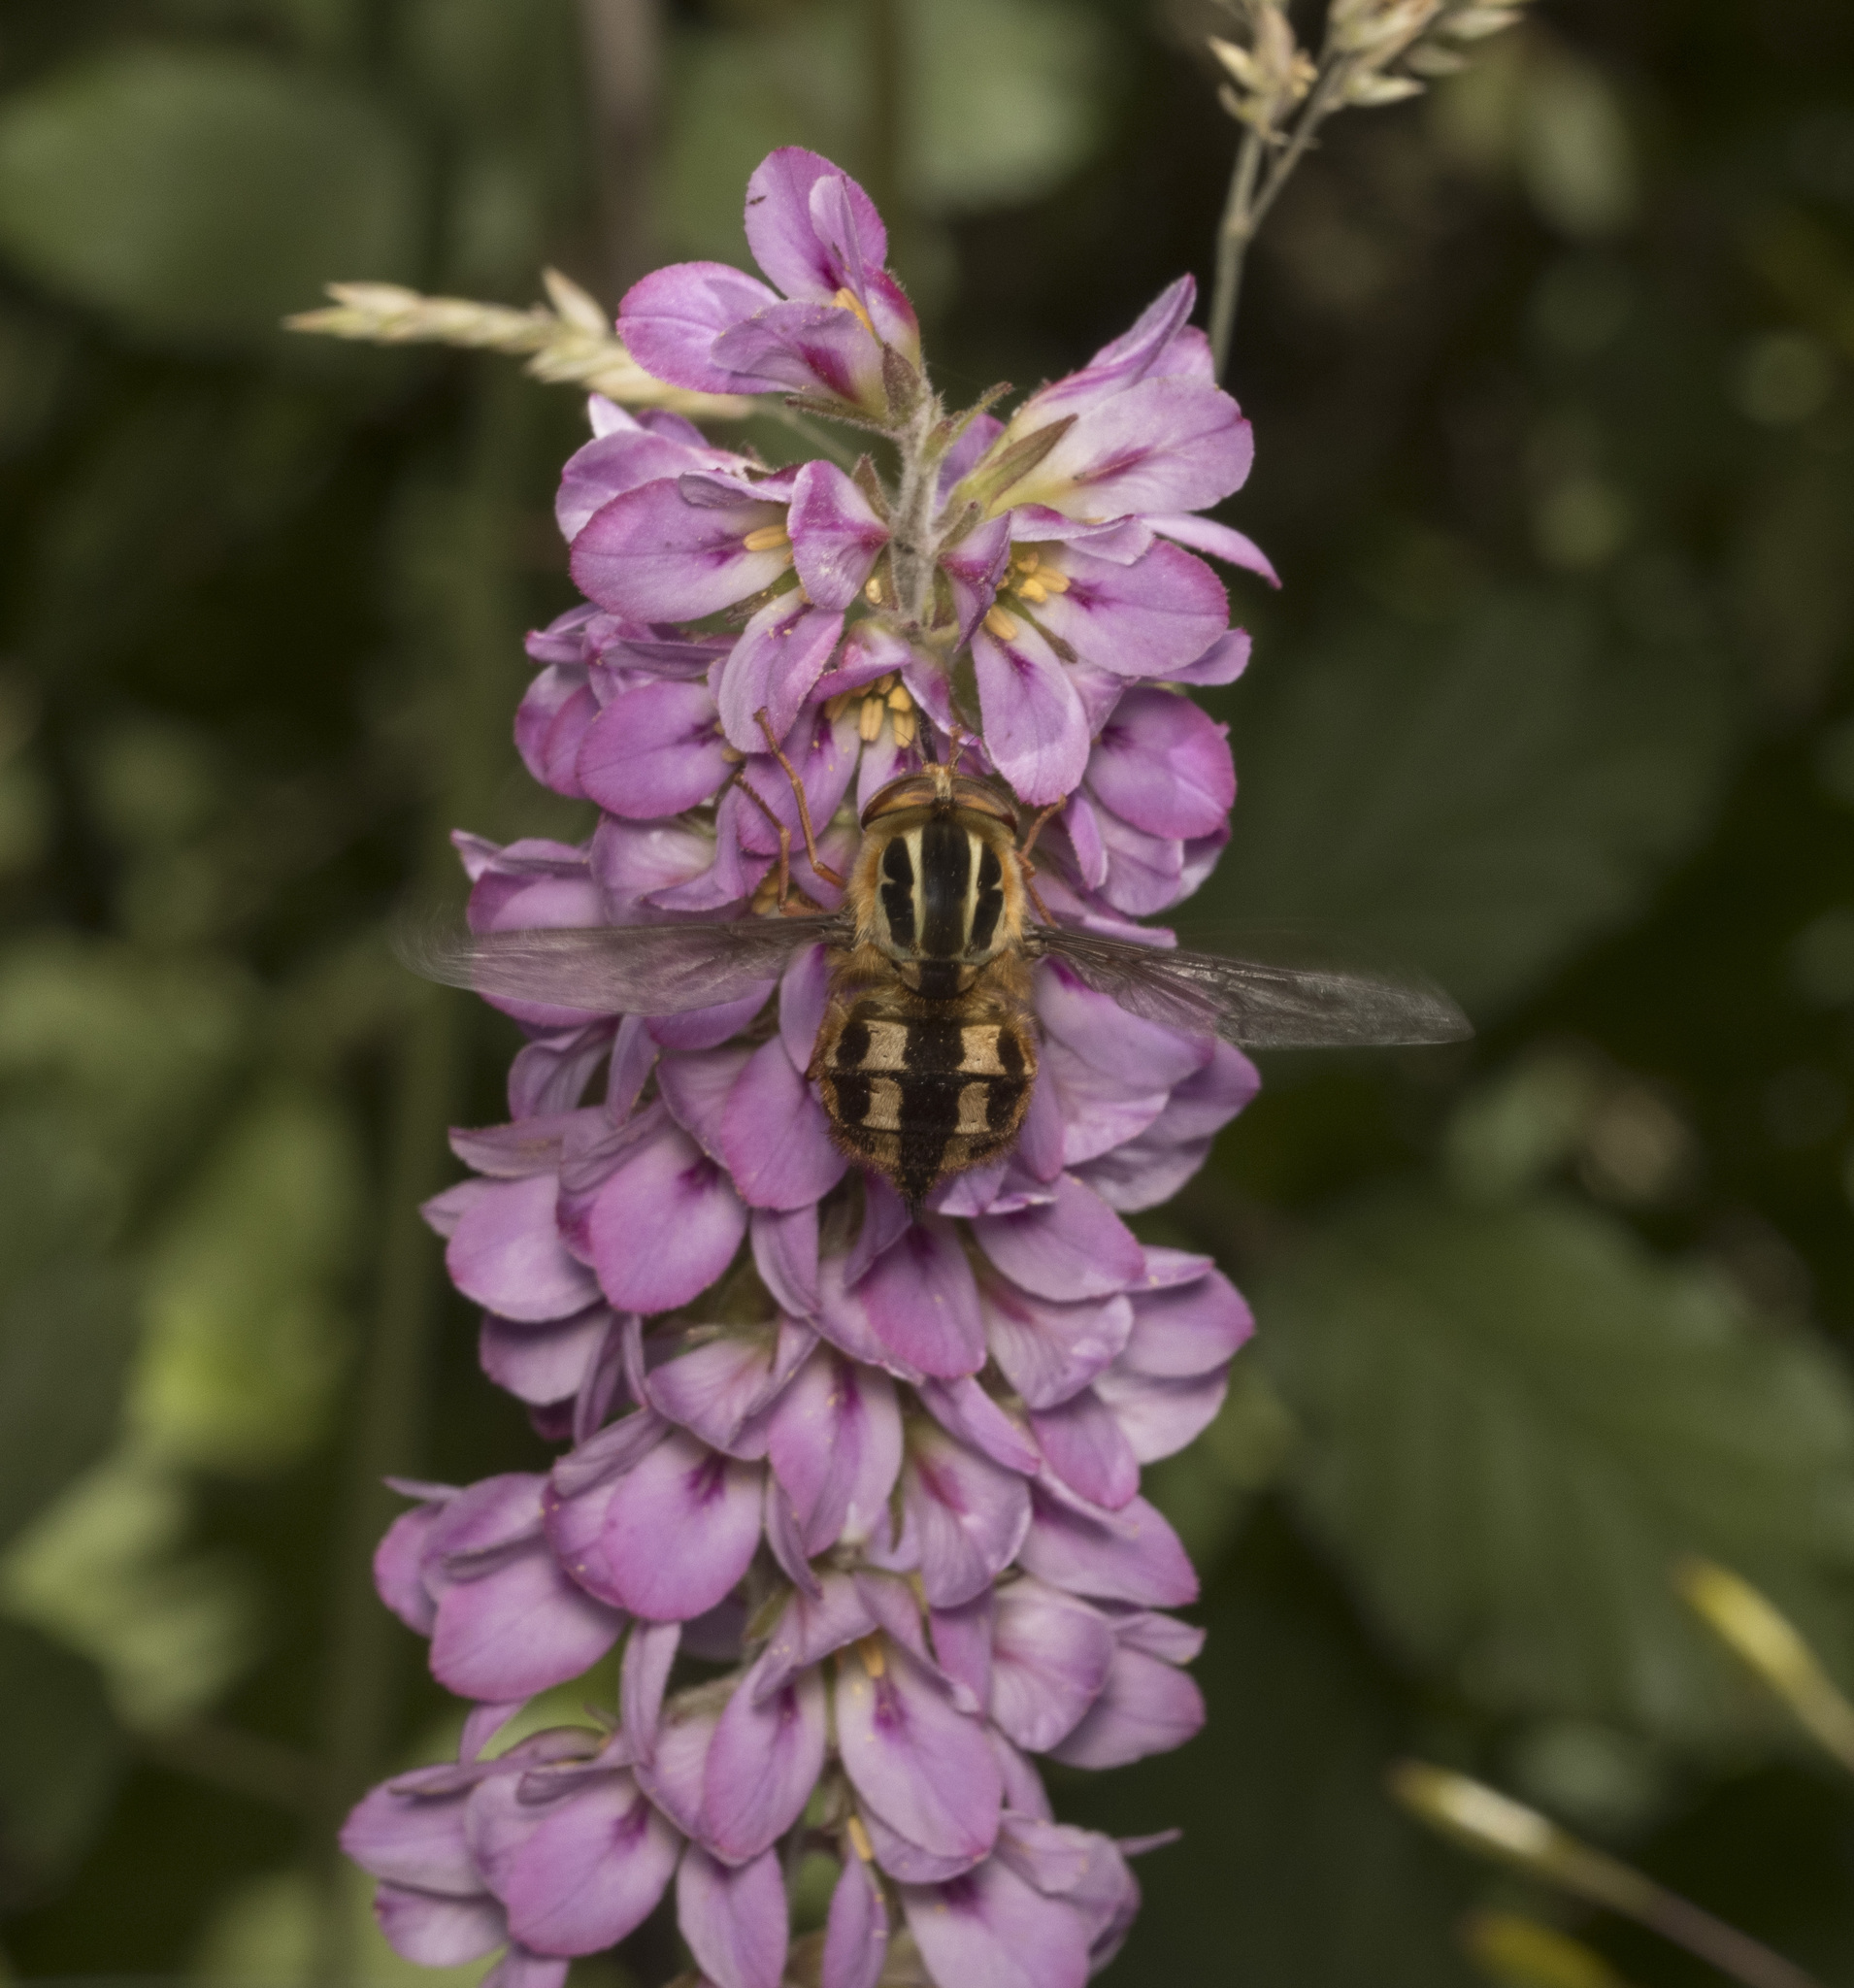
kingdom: Animalia
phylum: Arthropoda
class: Insecta
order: Diptera
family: Nemestrinidae
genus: Trichophthalma
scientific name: Trichophthalma commutata
